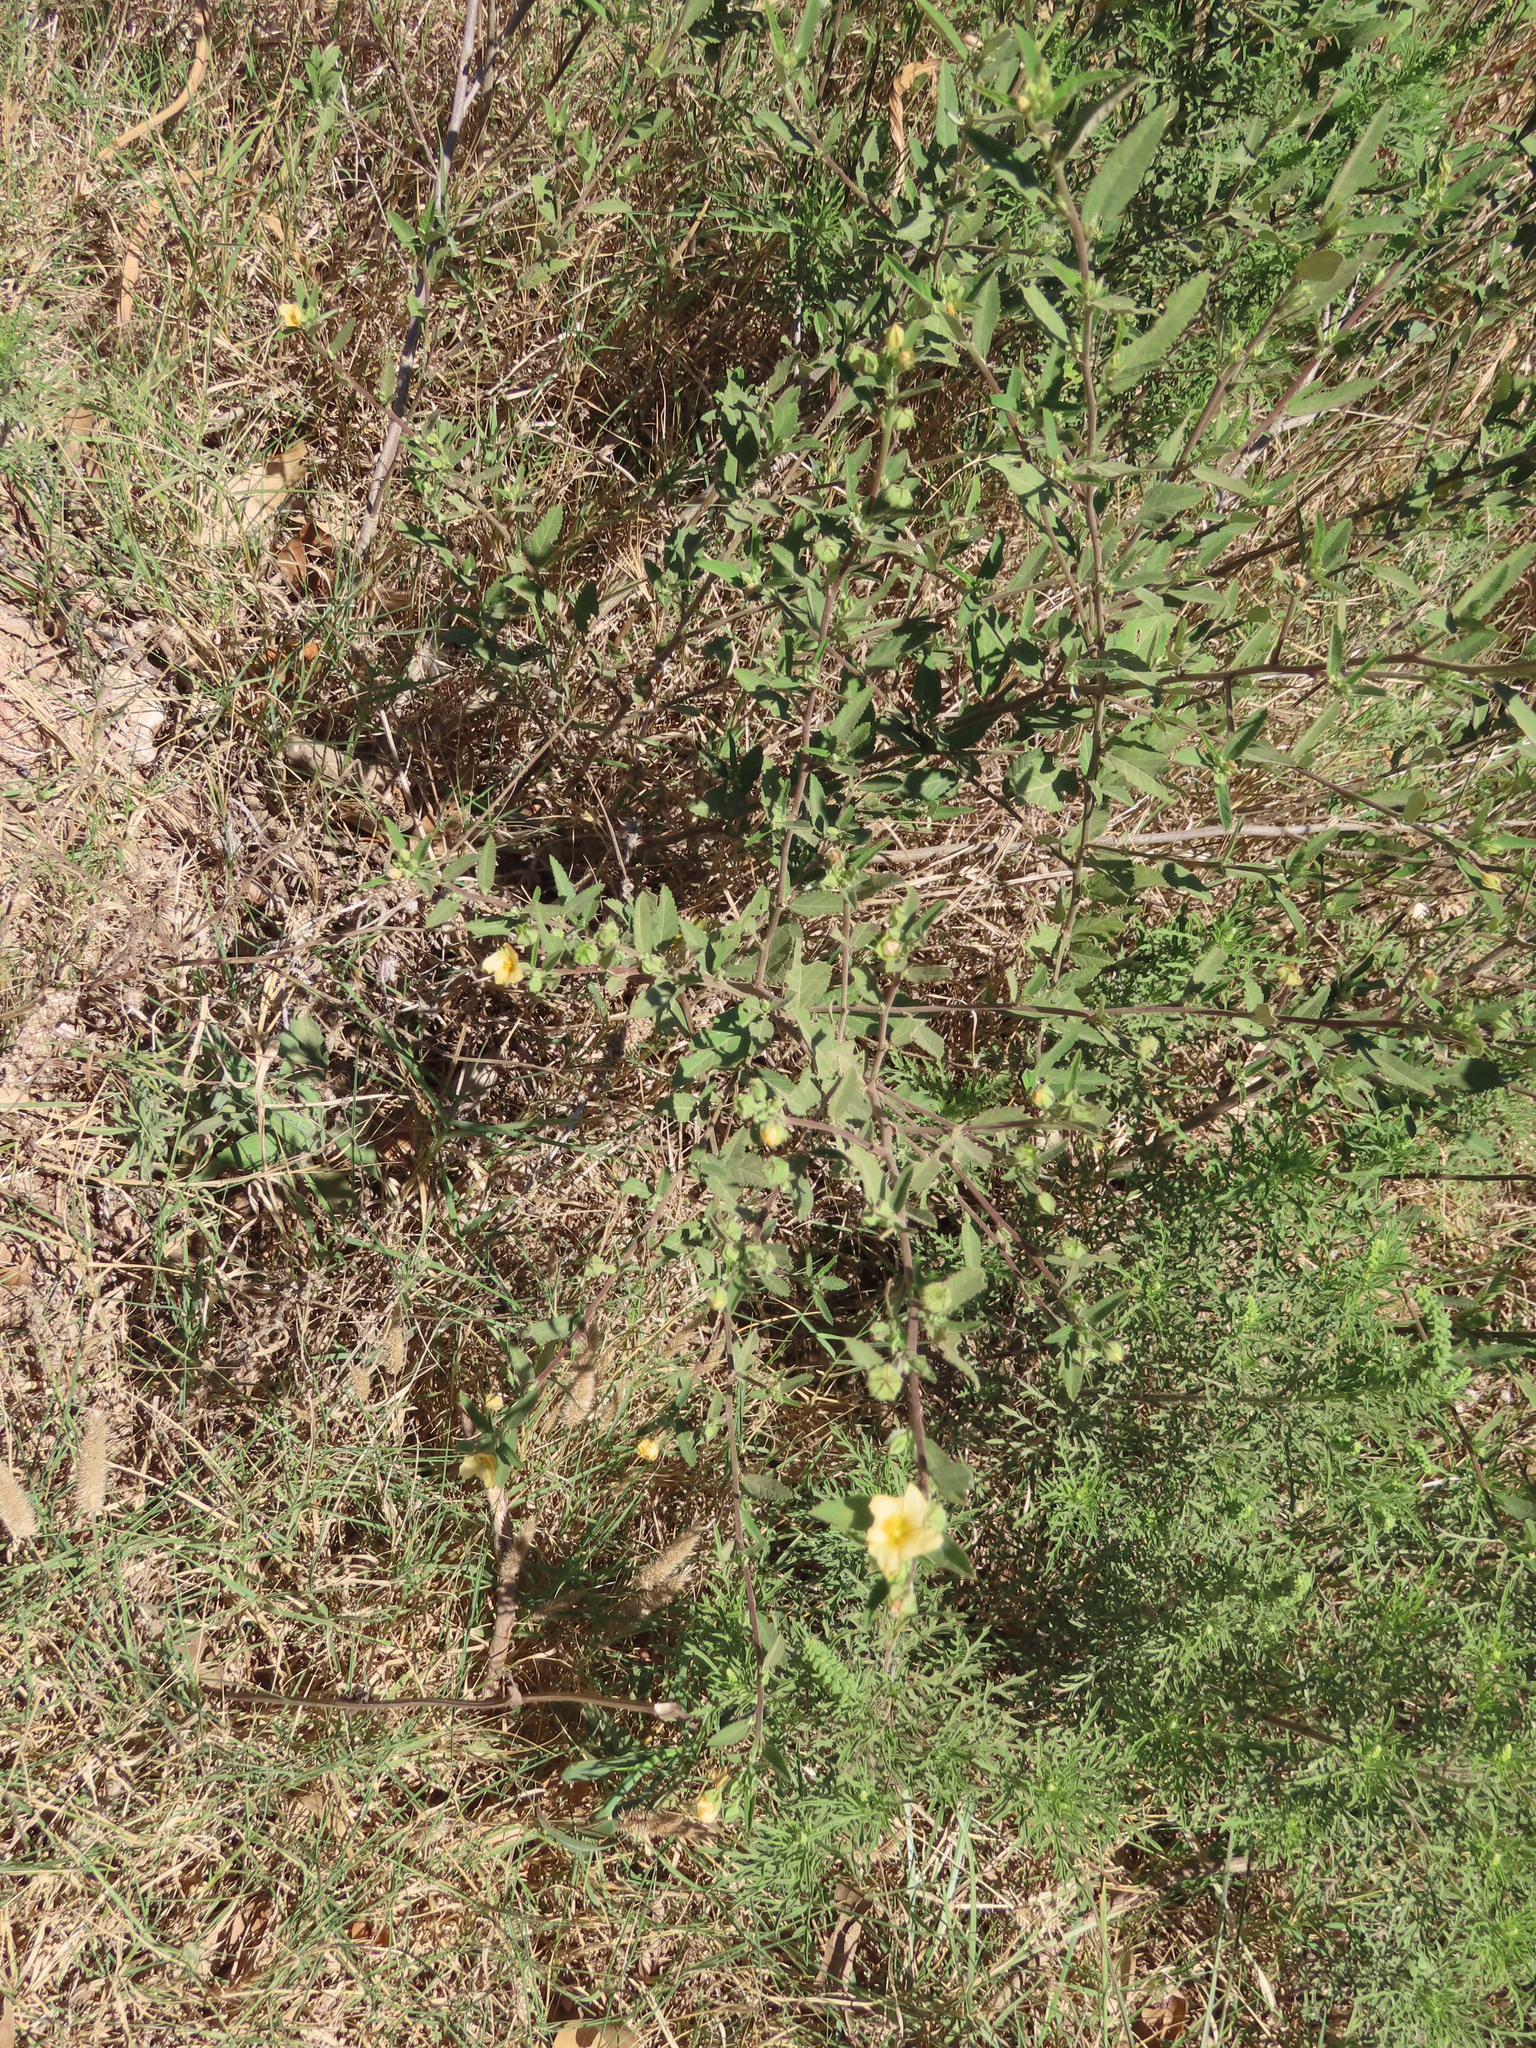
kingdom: Plantae
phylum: Tracheophyta
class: Magnoliopsida
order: Malvales
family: Malvaceae
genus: Sida
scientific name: Sida spinosa
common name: Prickly fanpetals
